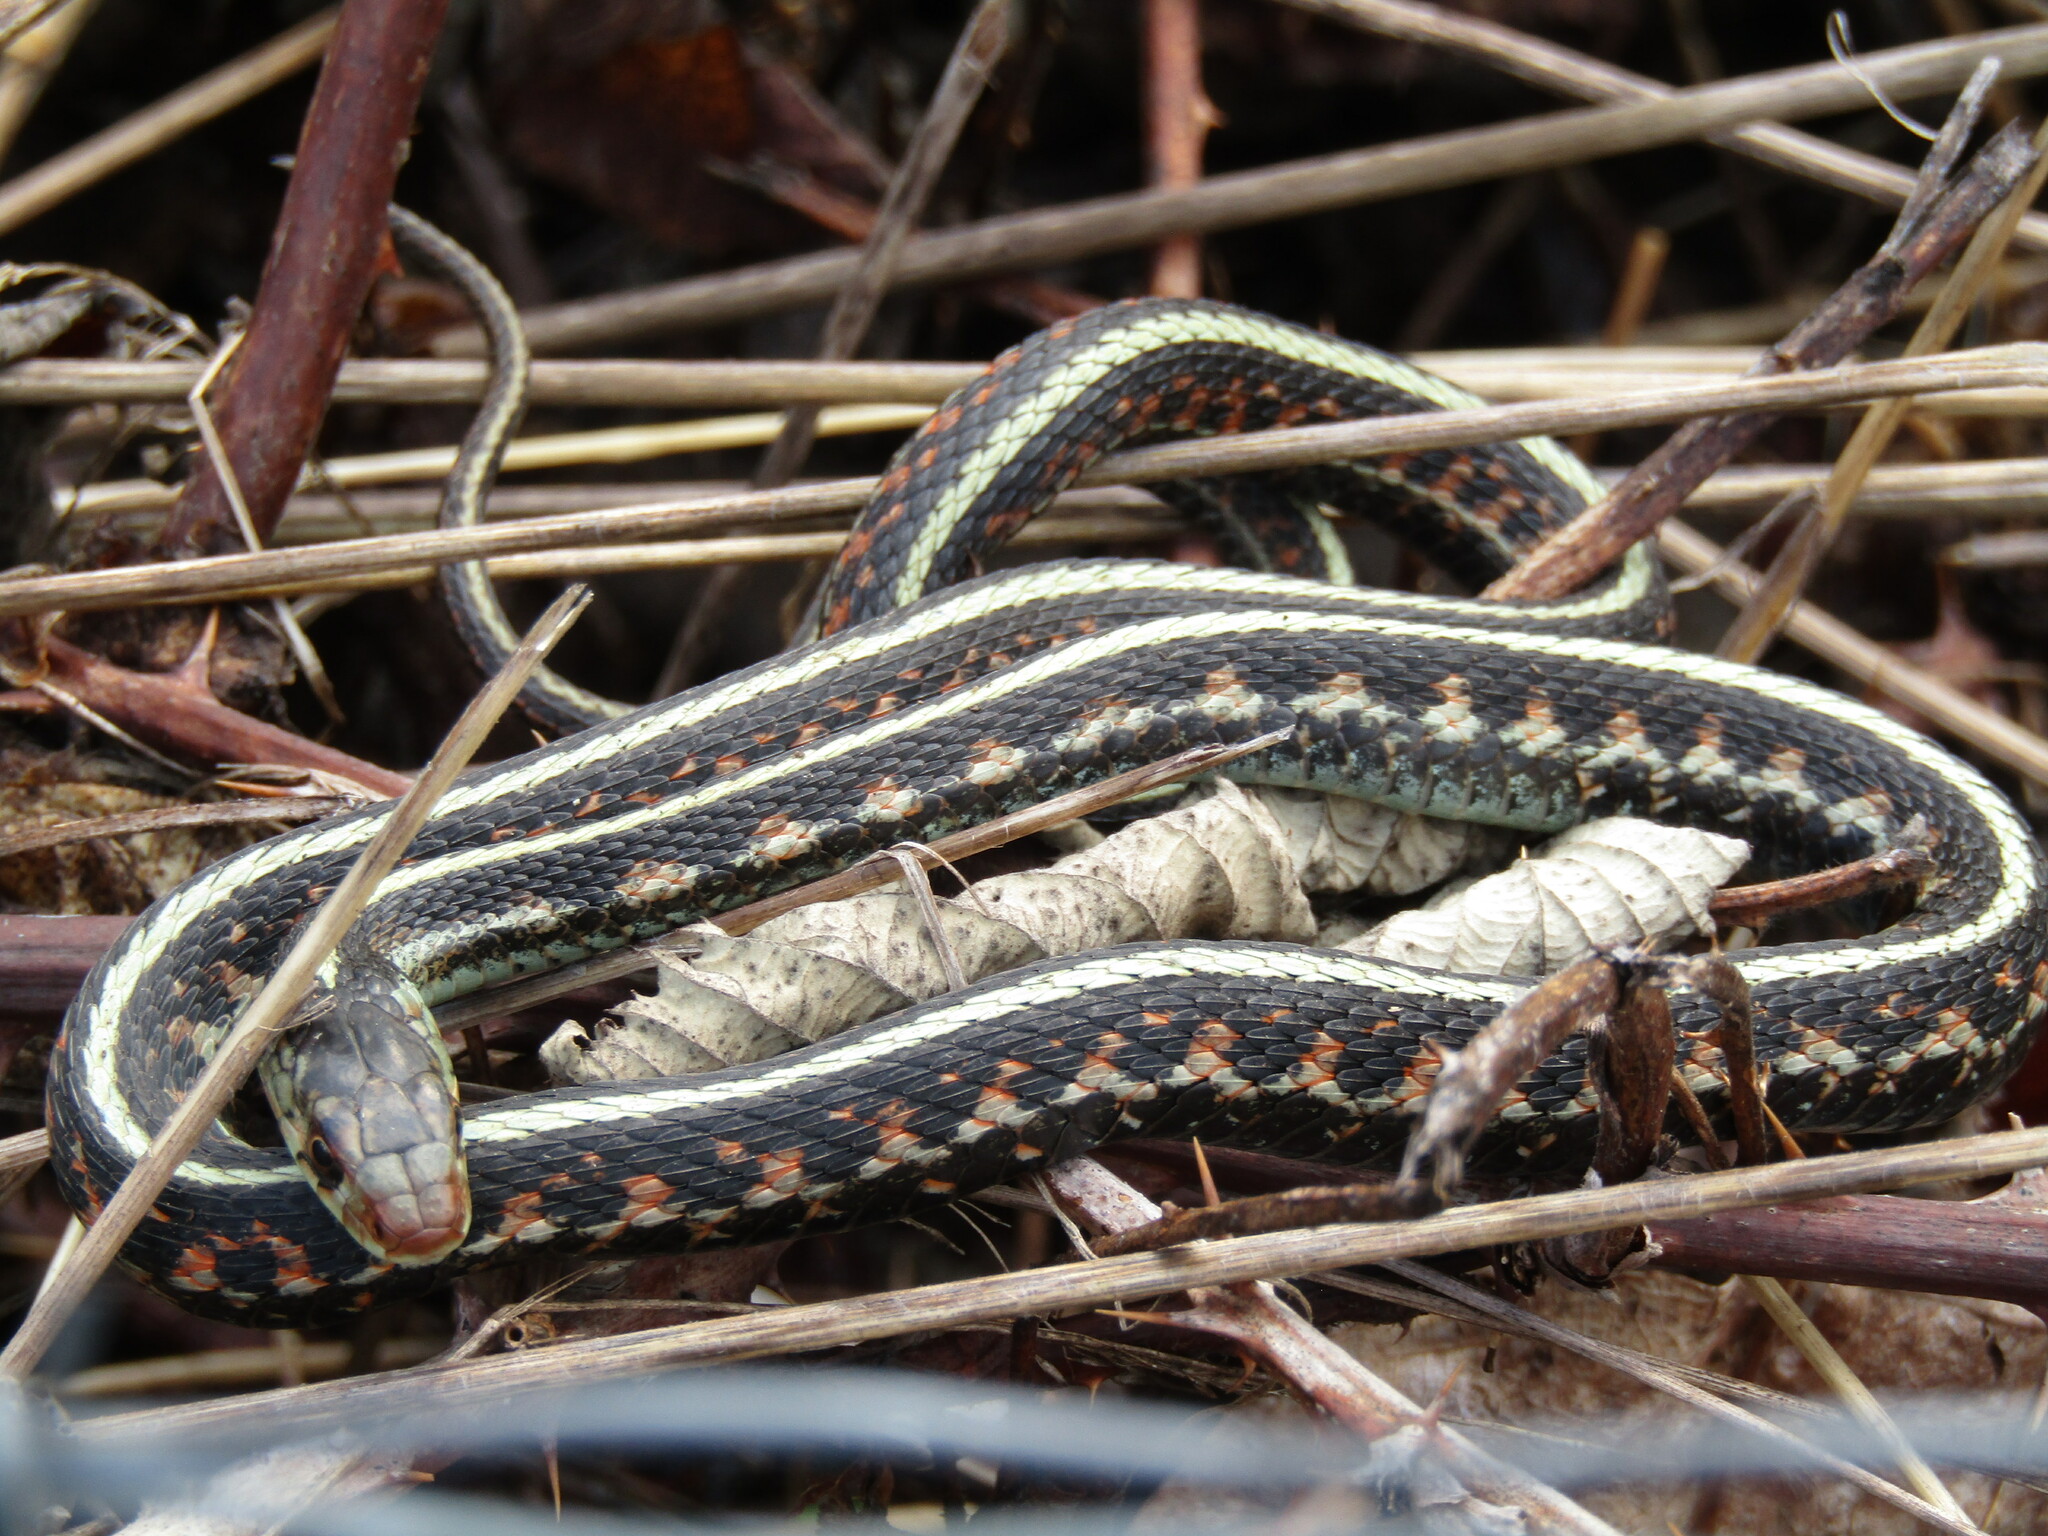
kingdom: Animalia
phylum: Chordata
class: Squamata
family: Colubridae
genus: Thamnophis
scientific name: Thamnophis sirtalis
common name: Common garter snake
